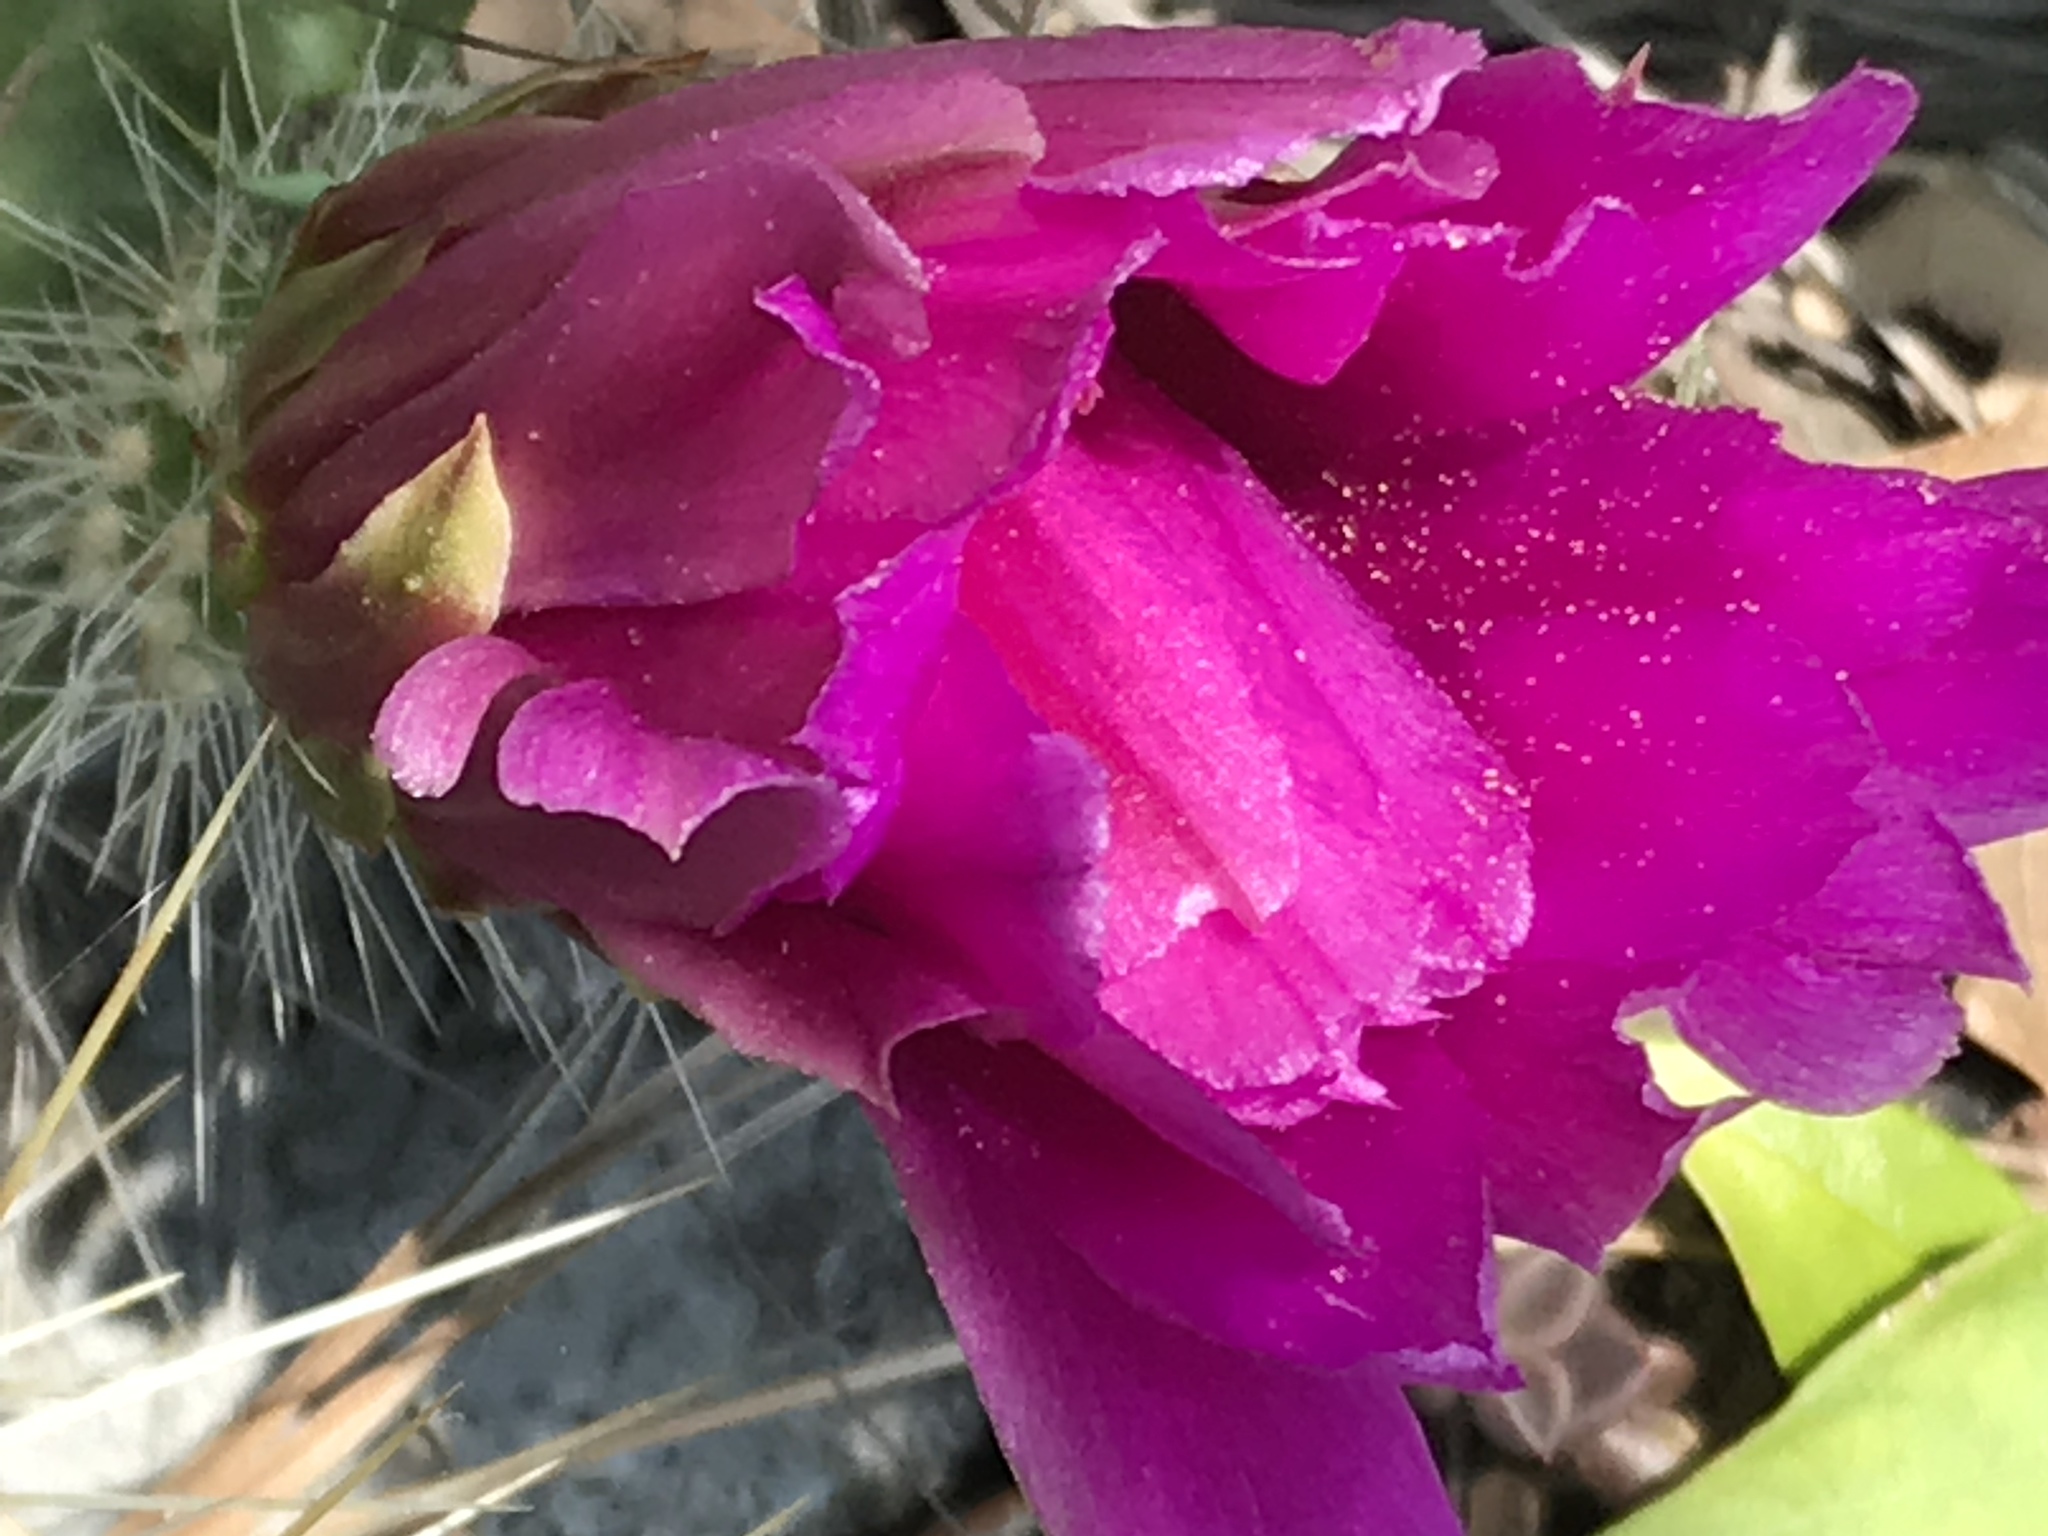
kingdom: Plantae
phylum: Tracheophyta
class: Magnoliopsida
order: Caryophyllales
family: Cactaceae
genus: Echinocereus
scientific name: Echinocereus viereckii
